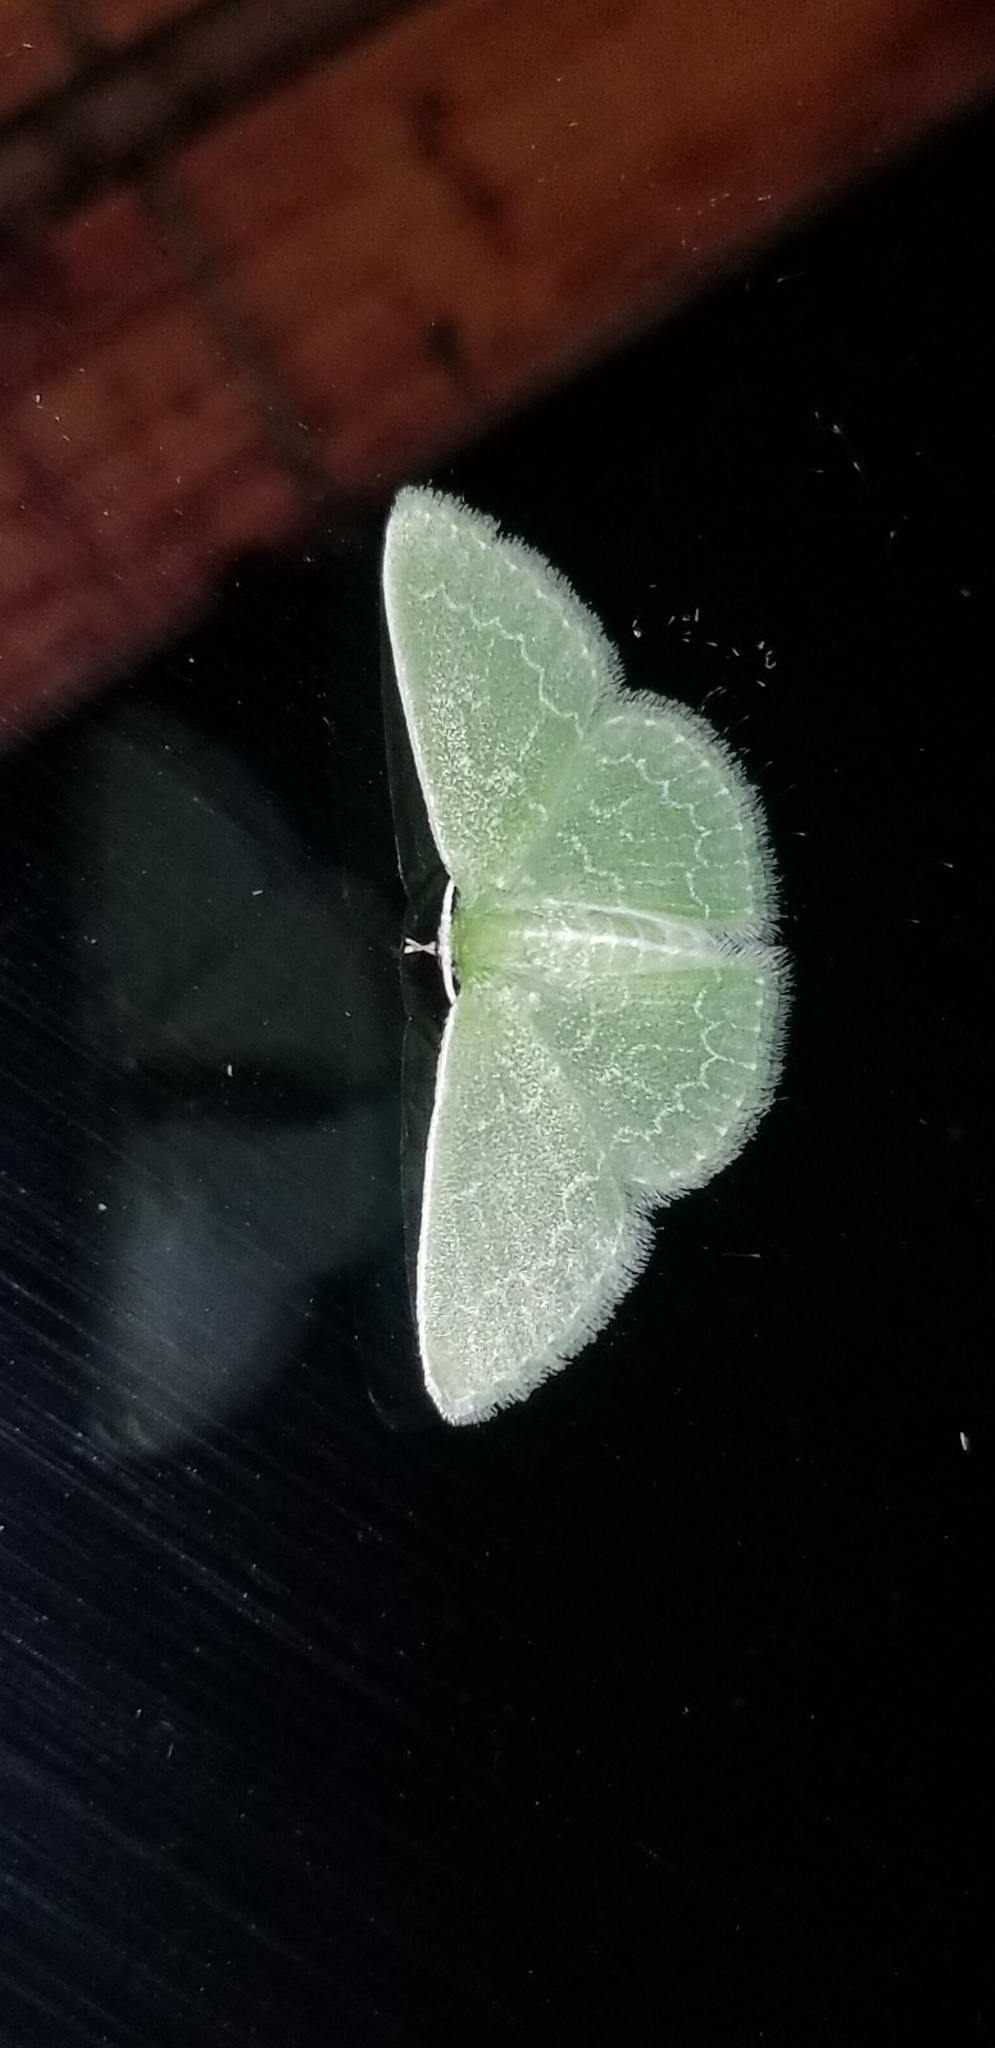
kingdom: Animalia
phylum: Arthropoda
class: Insecta
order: Lepidoptera
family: Geometridae
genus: Synchlora
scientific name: Synchlora frondaria
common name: Southern emerald
